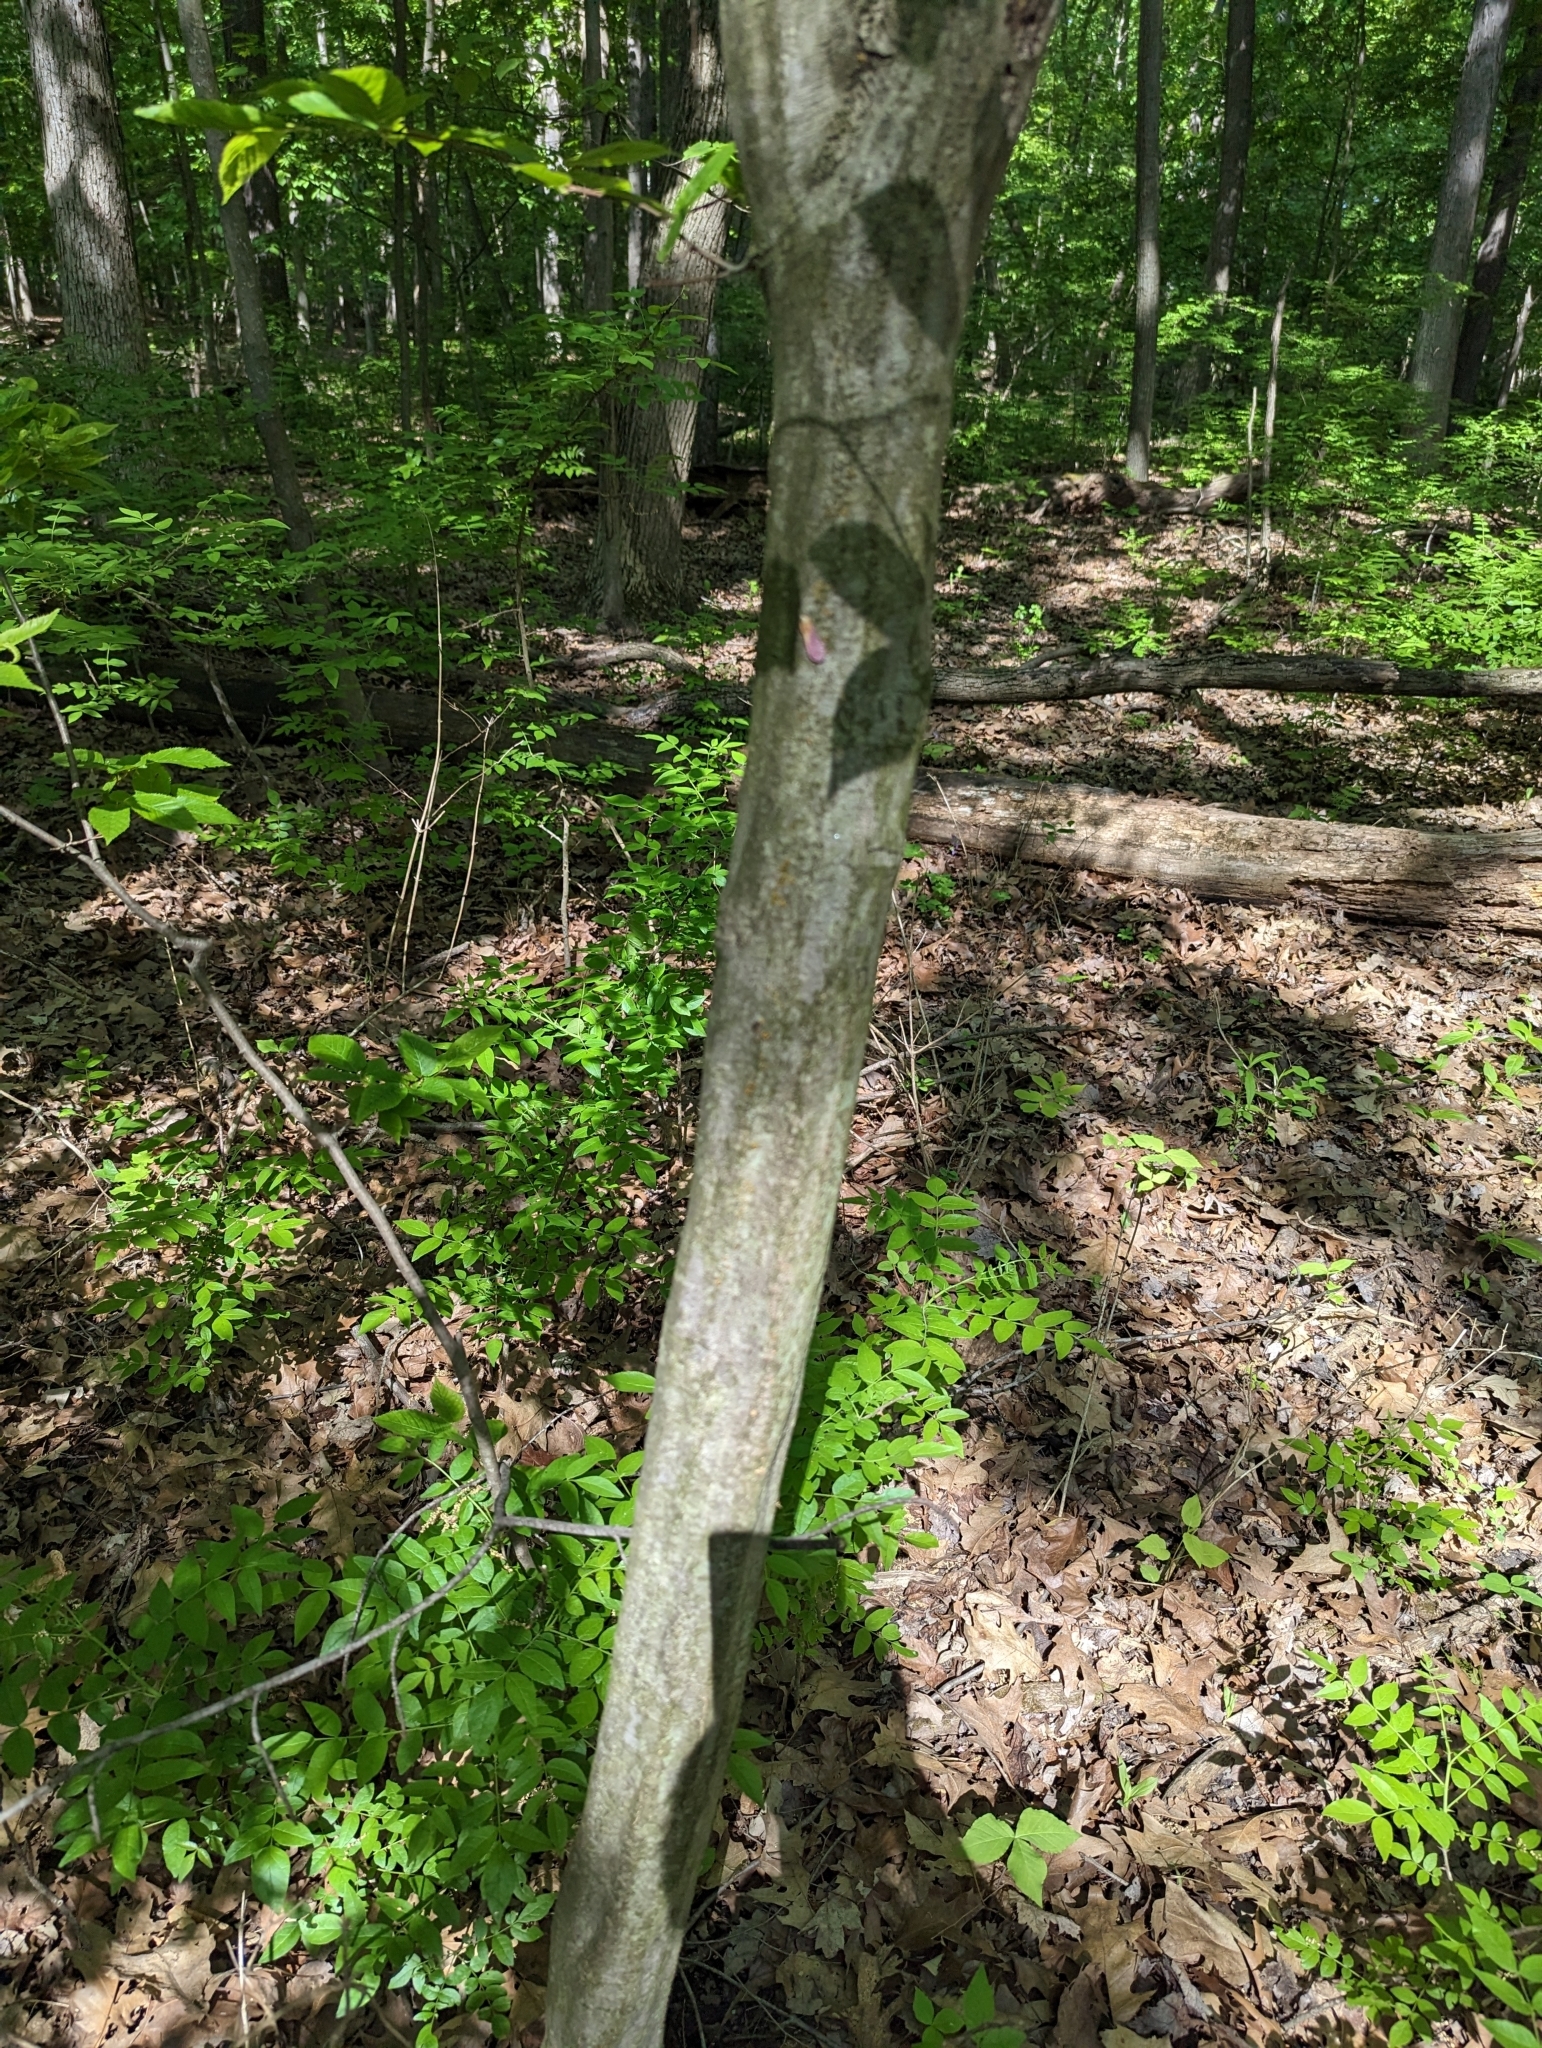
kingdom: Plantae
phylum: Tracheophyta
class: Magnoliopsida
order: Fagales
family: Betulaceae
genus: Carpinus
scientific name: Carpinus caroliniana
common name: American hornbeam
